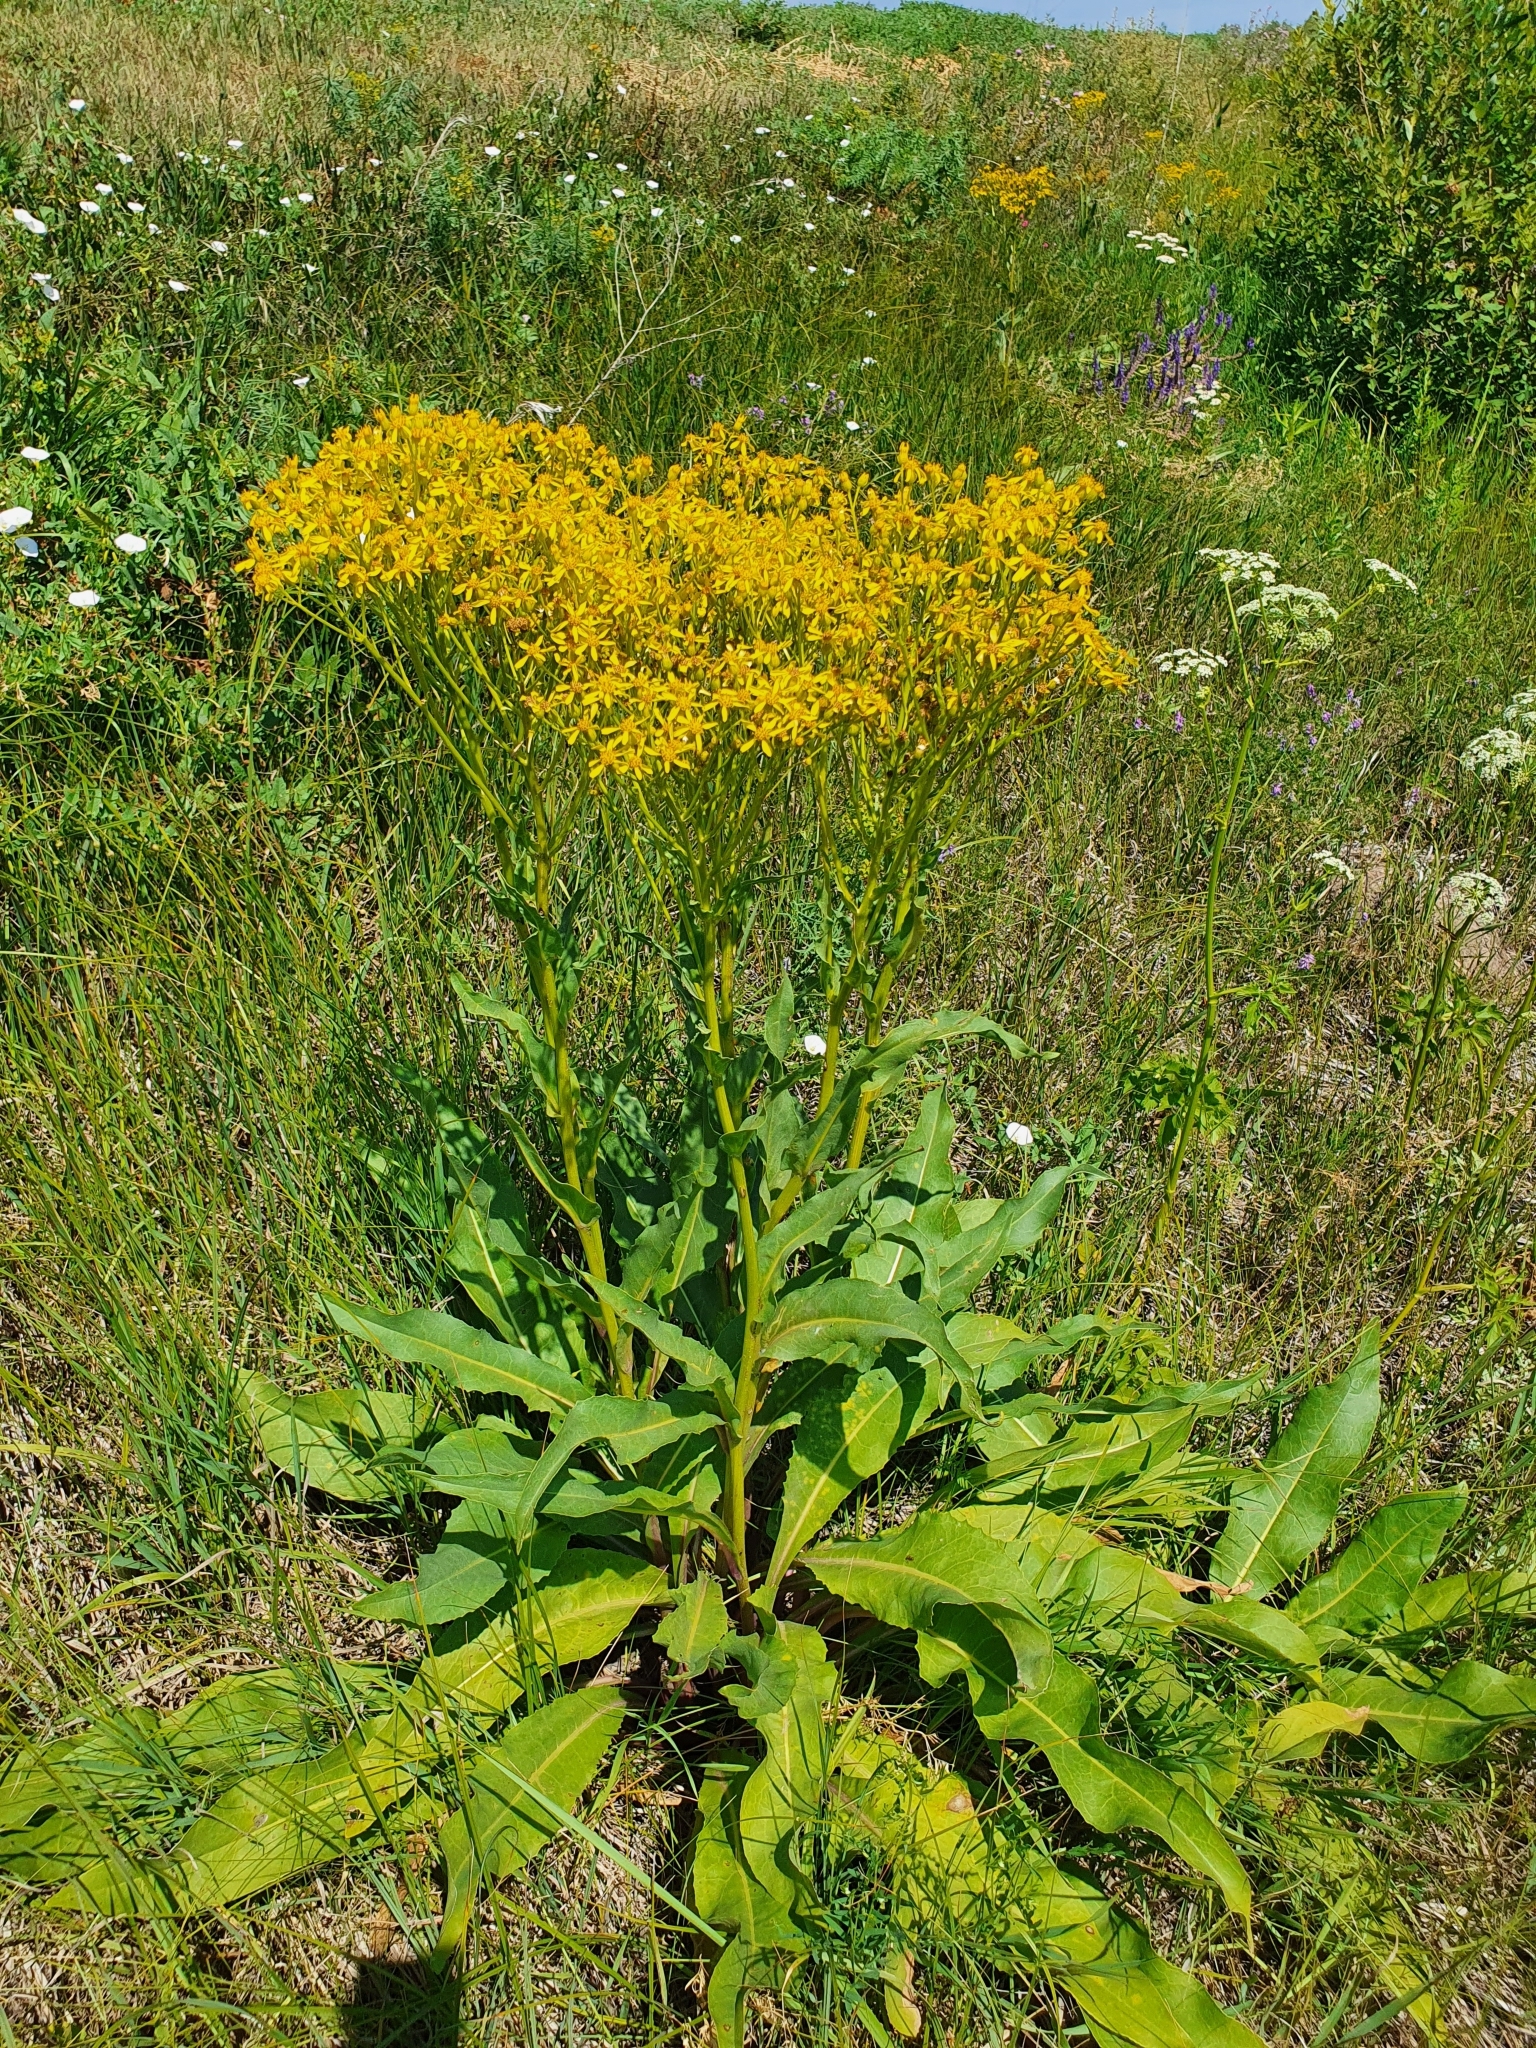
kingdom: Plantae
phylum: Tracheophyta
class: Magnoliopsida
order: Asterales
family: Asteraceae
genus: Senecio
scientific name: Senecio doria
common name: Golden ragwort
